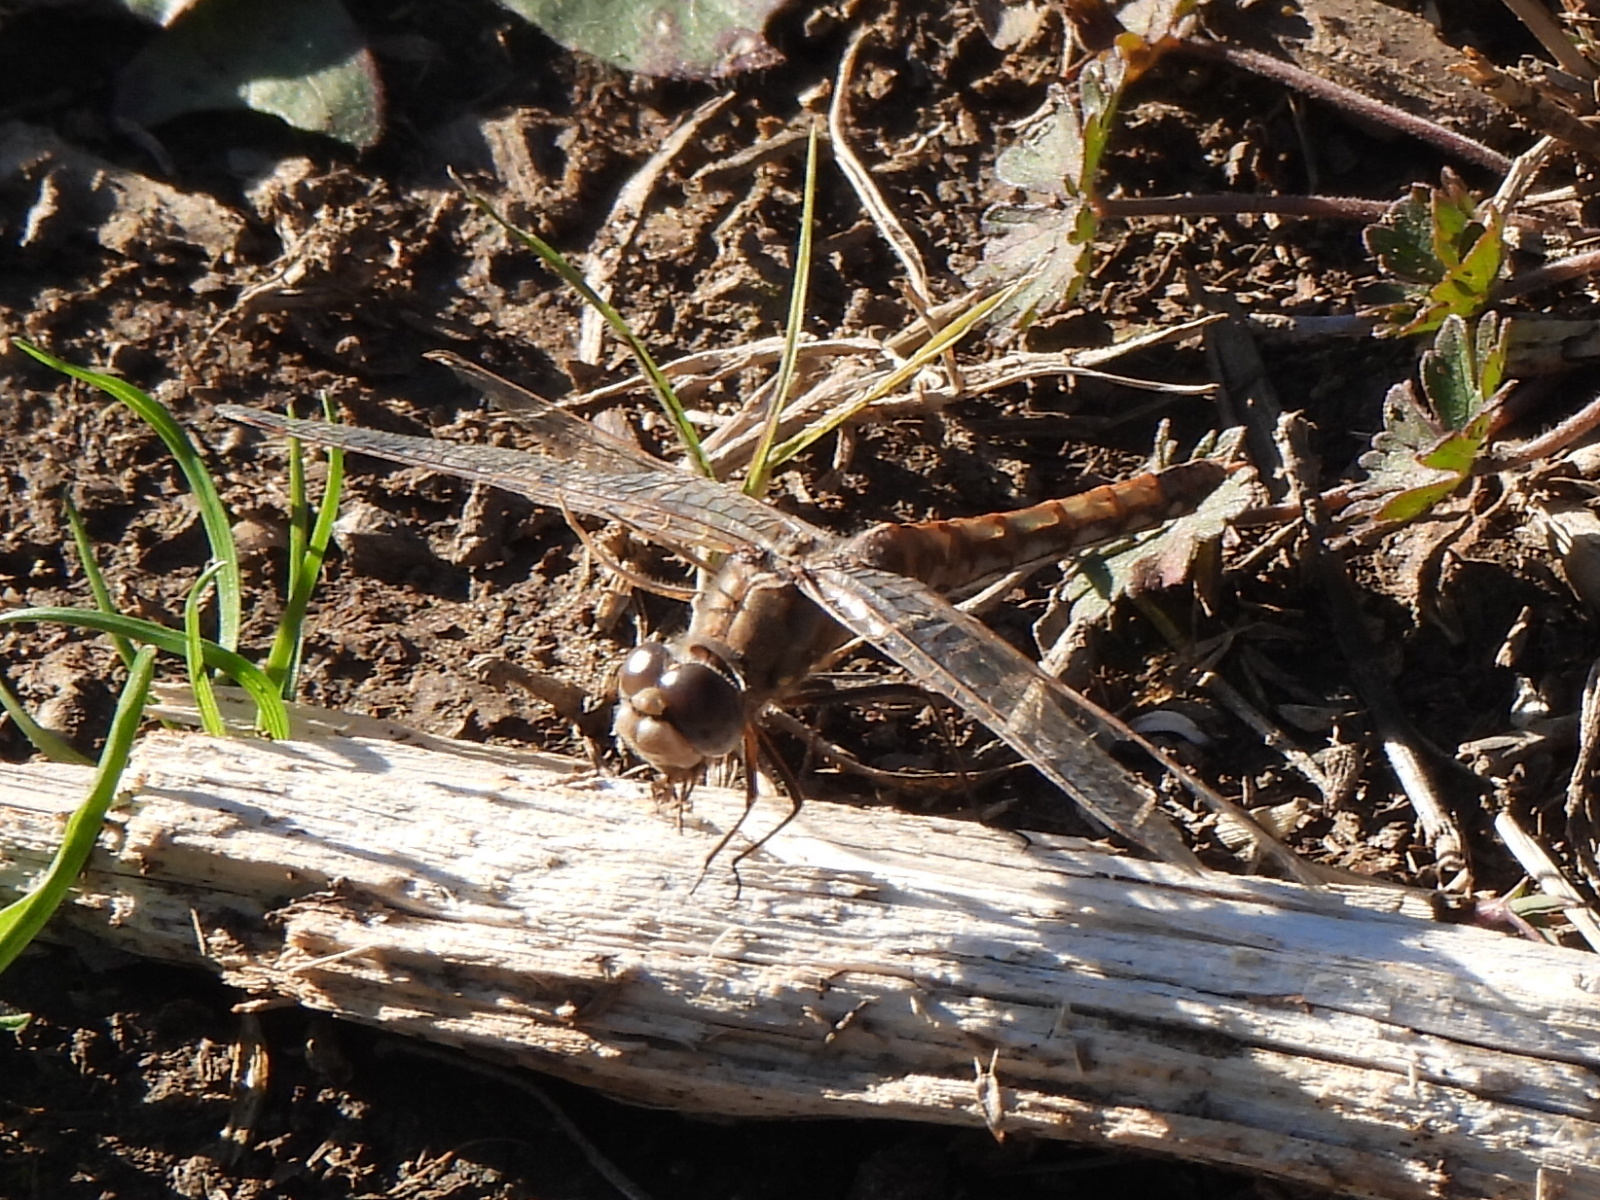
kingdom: Animalia
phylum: Arthropoda
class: Insecta
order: Odonata
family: Libellulidae
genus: Sympetrum
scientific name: Sympetrum corruptum
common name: Variegated meadowhawk
